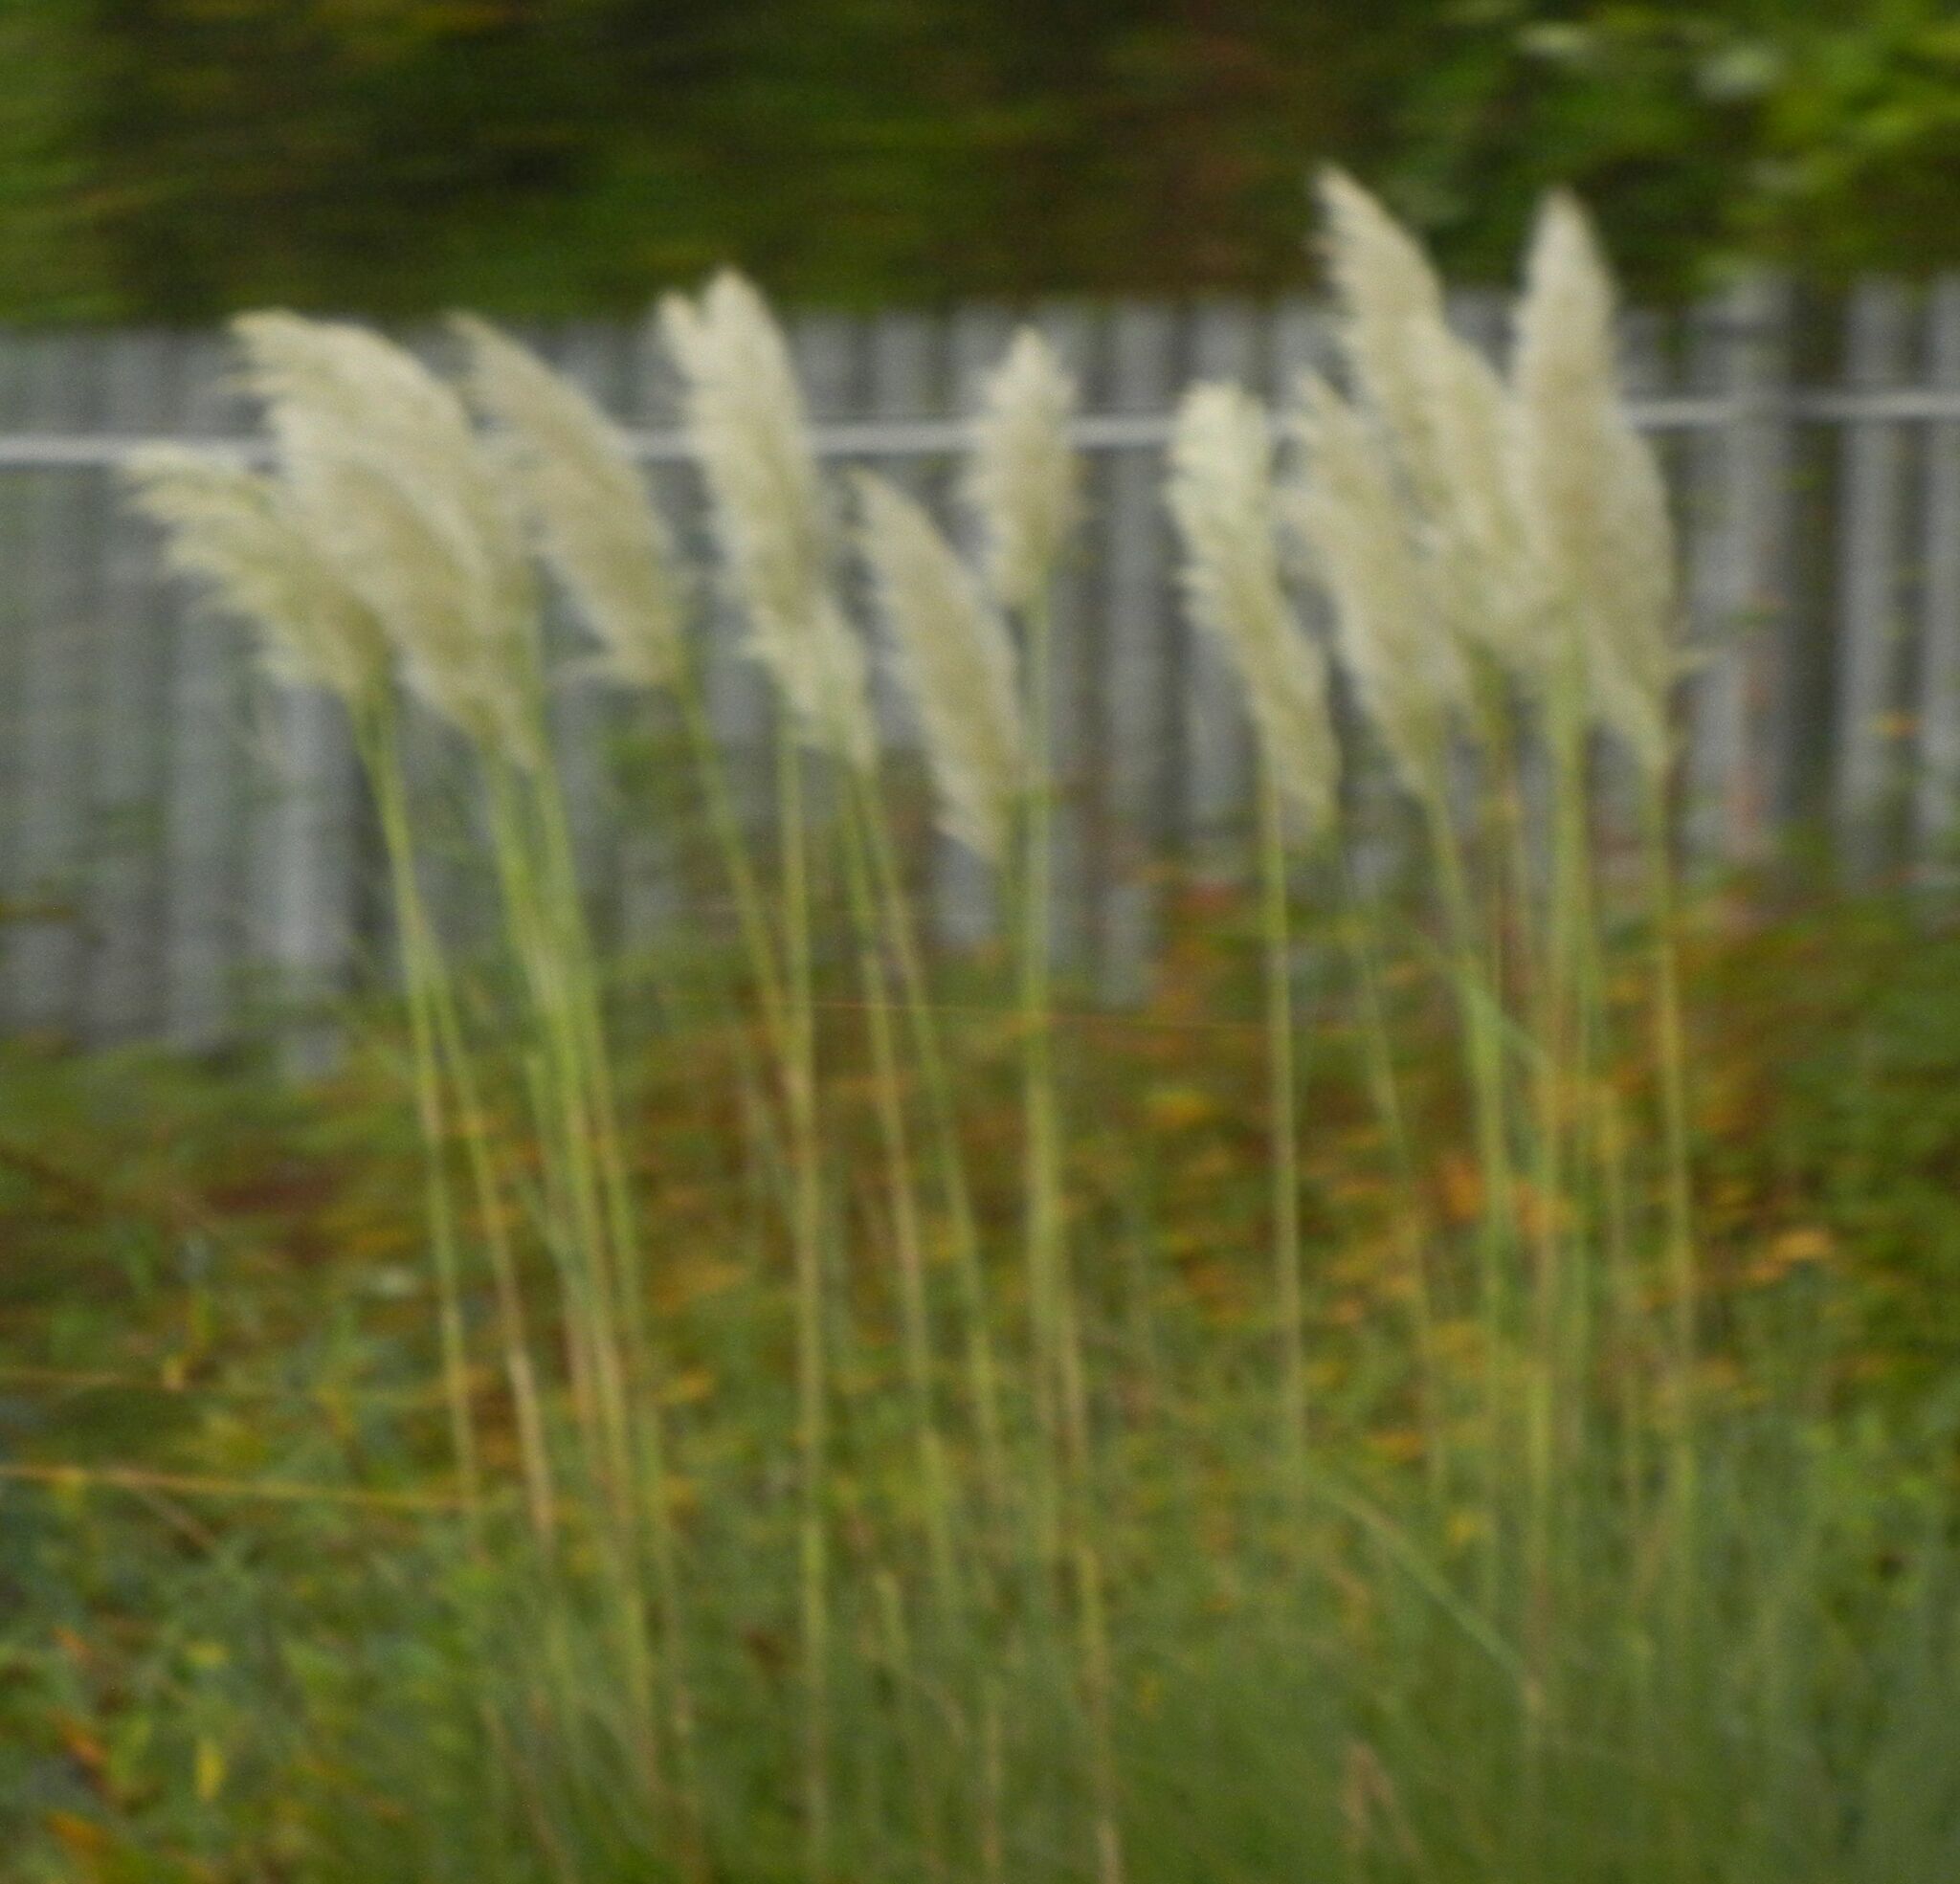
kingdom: Plantae
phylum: Tracheophyta
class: Liliopsida
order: Poales
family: Poaceae
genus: Cortaderia
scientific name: Cortaderia selloana
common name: Uruguayan pampas grass
